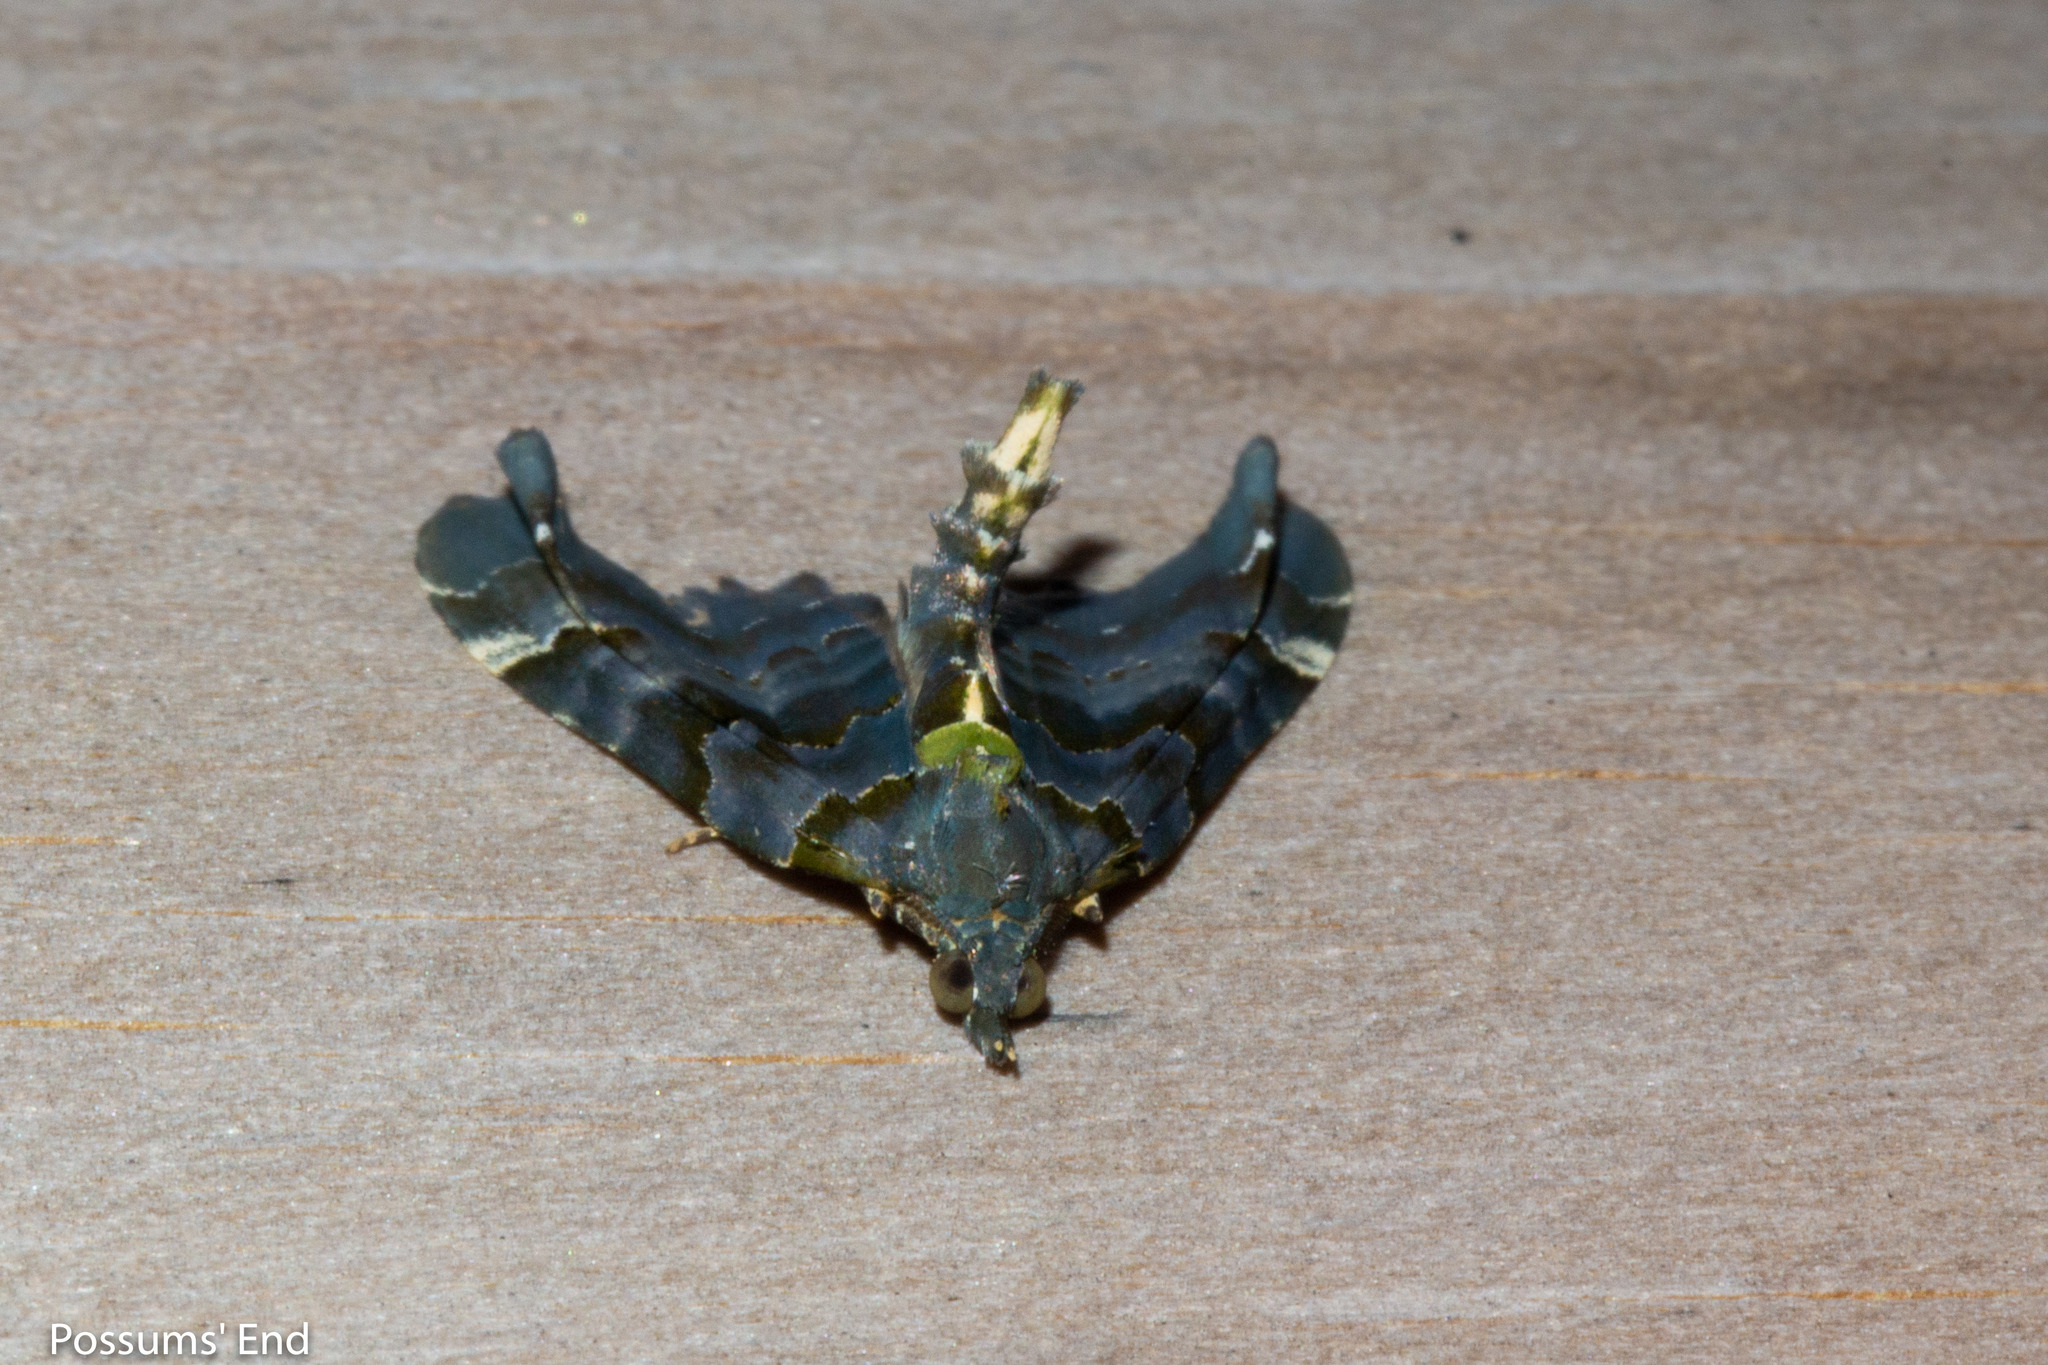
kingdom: Animalia
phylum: Arthropoda
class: Insecta
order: Lepidoptera
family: Geometridae
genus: Elvia
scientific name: Elvia glaucata
